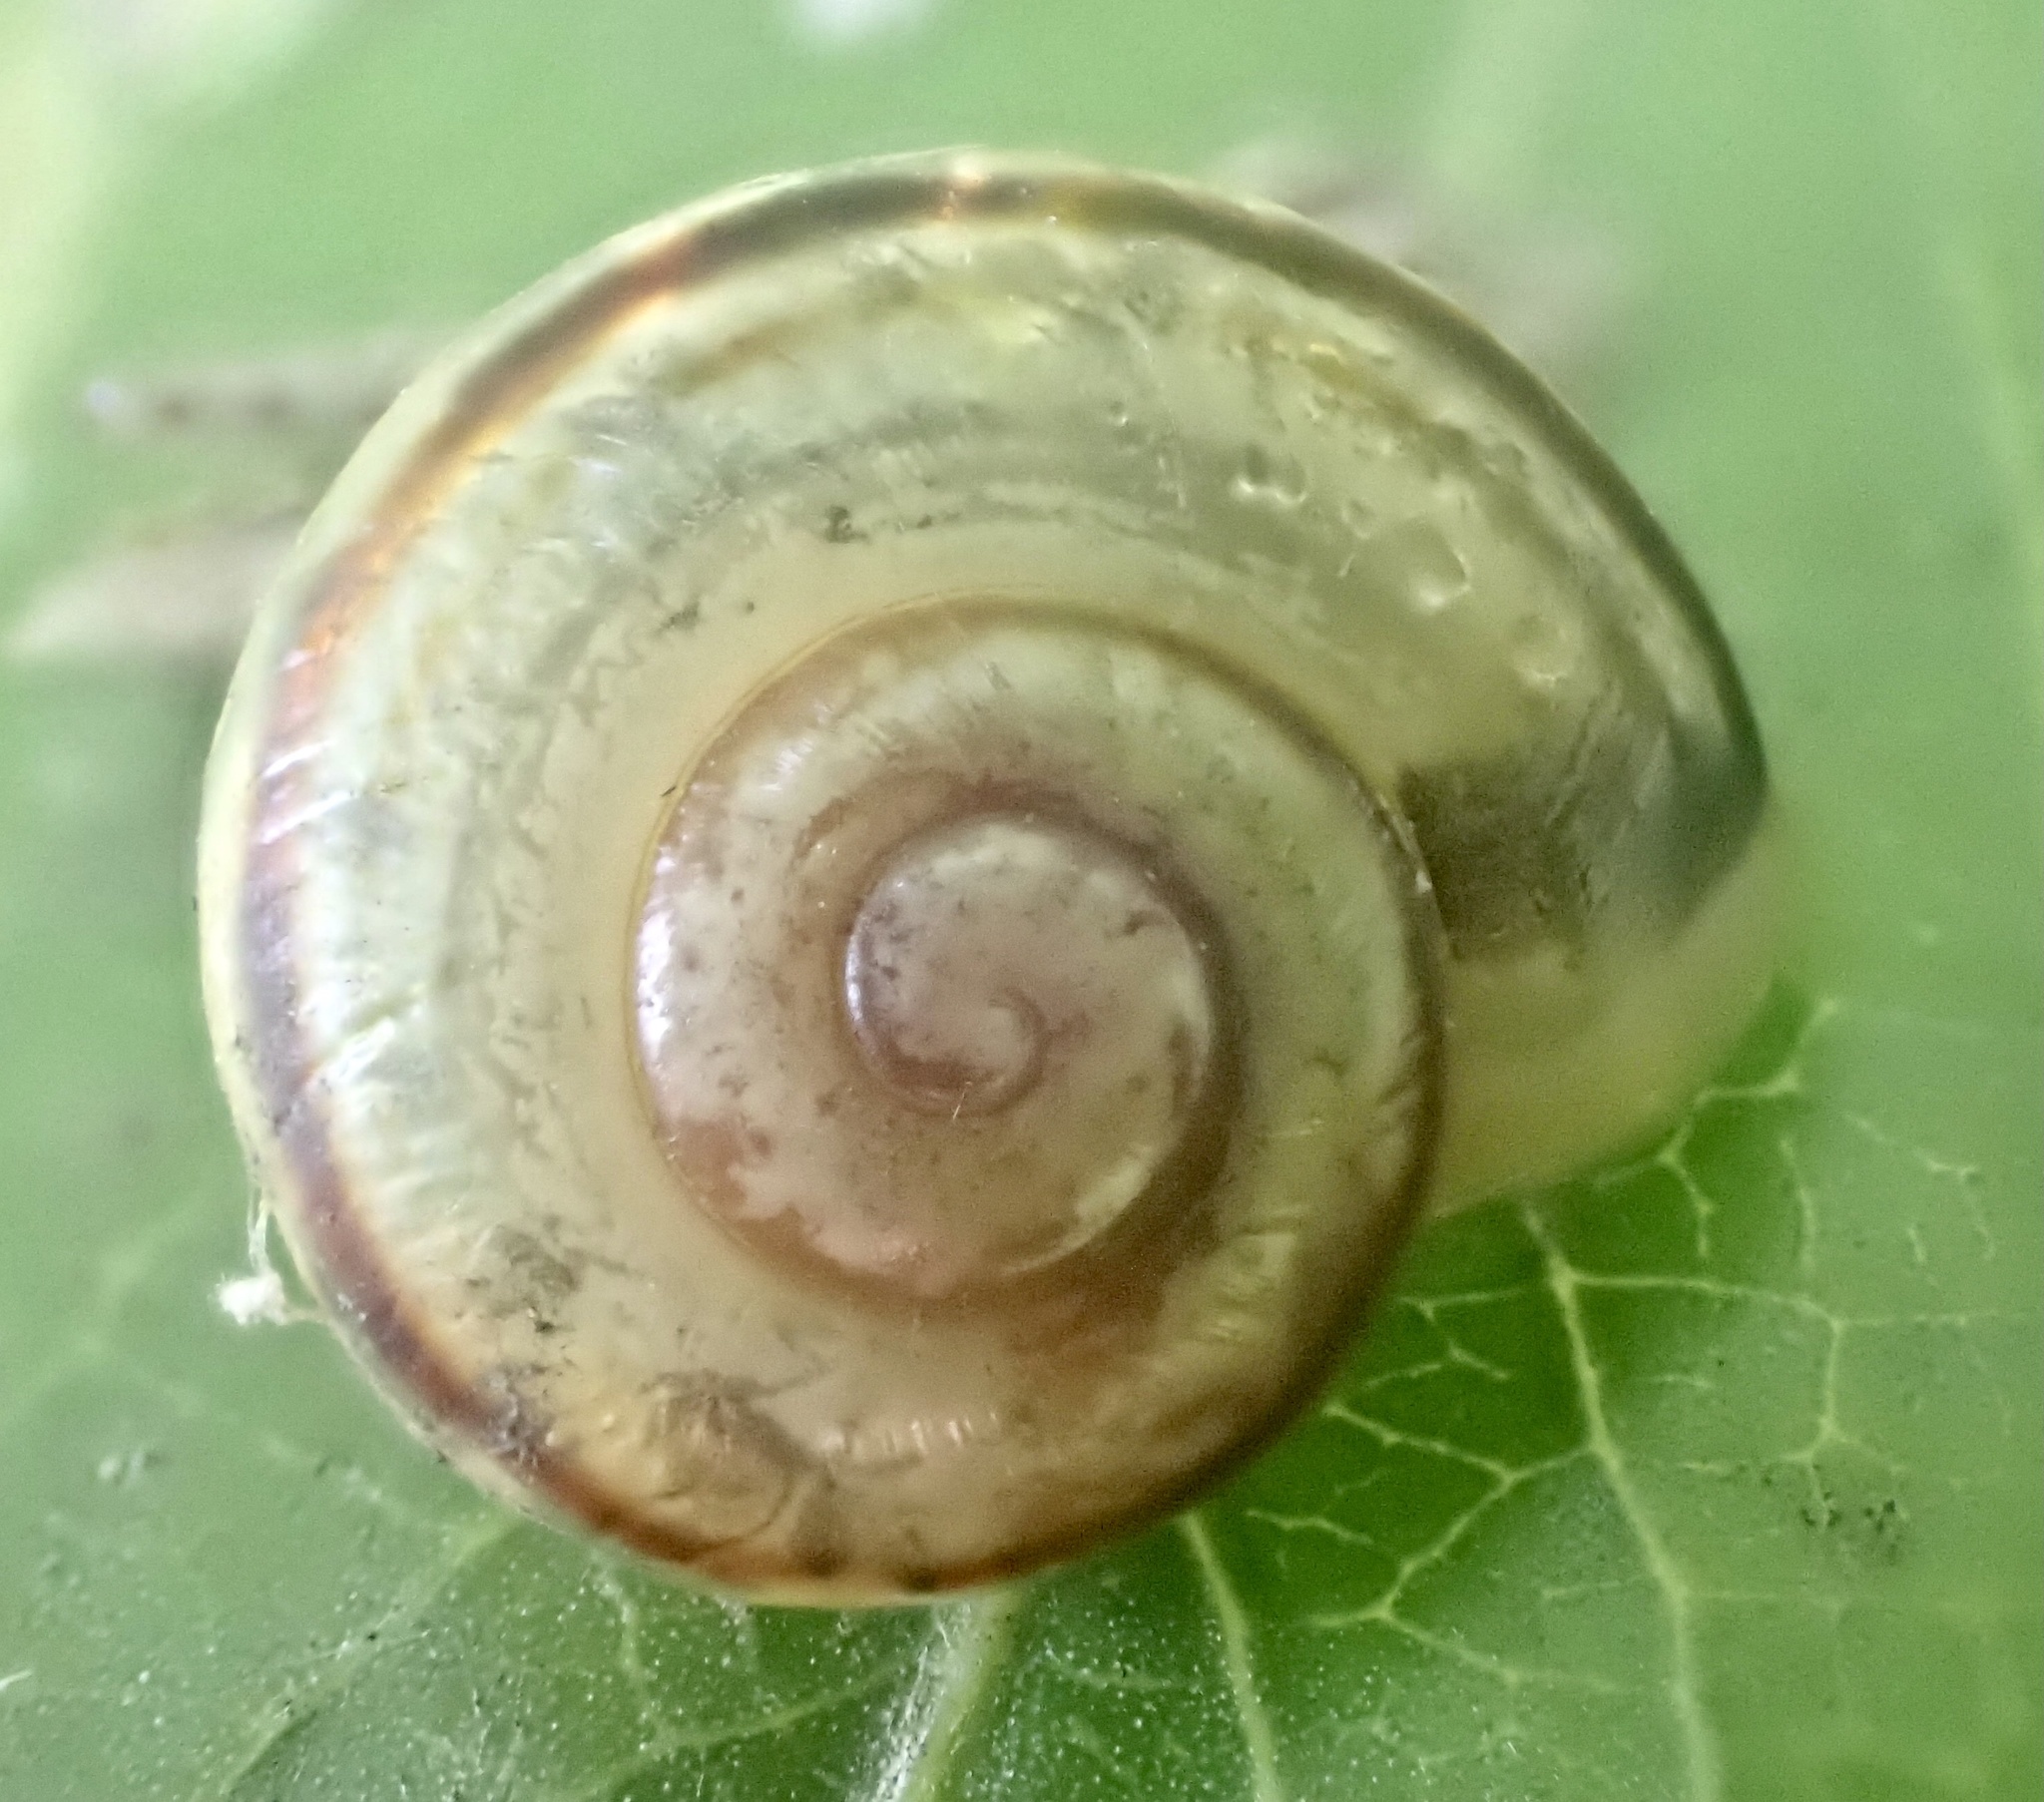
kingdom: Animalia
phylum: Mollusca
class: Gastropoda
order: Stylommatophora
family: Helicidae
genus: Cepaea
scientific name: Cepaea
